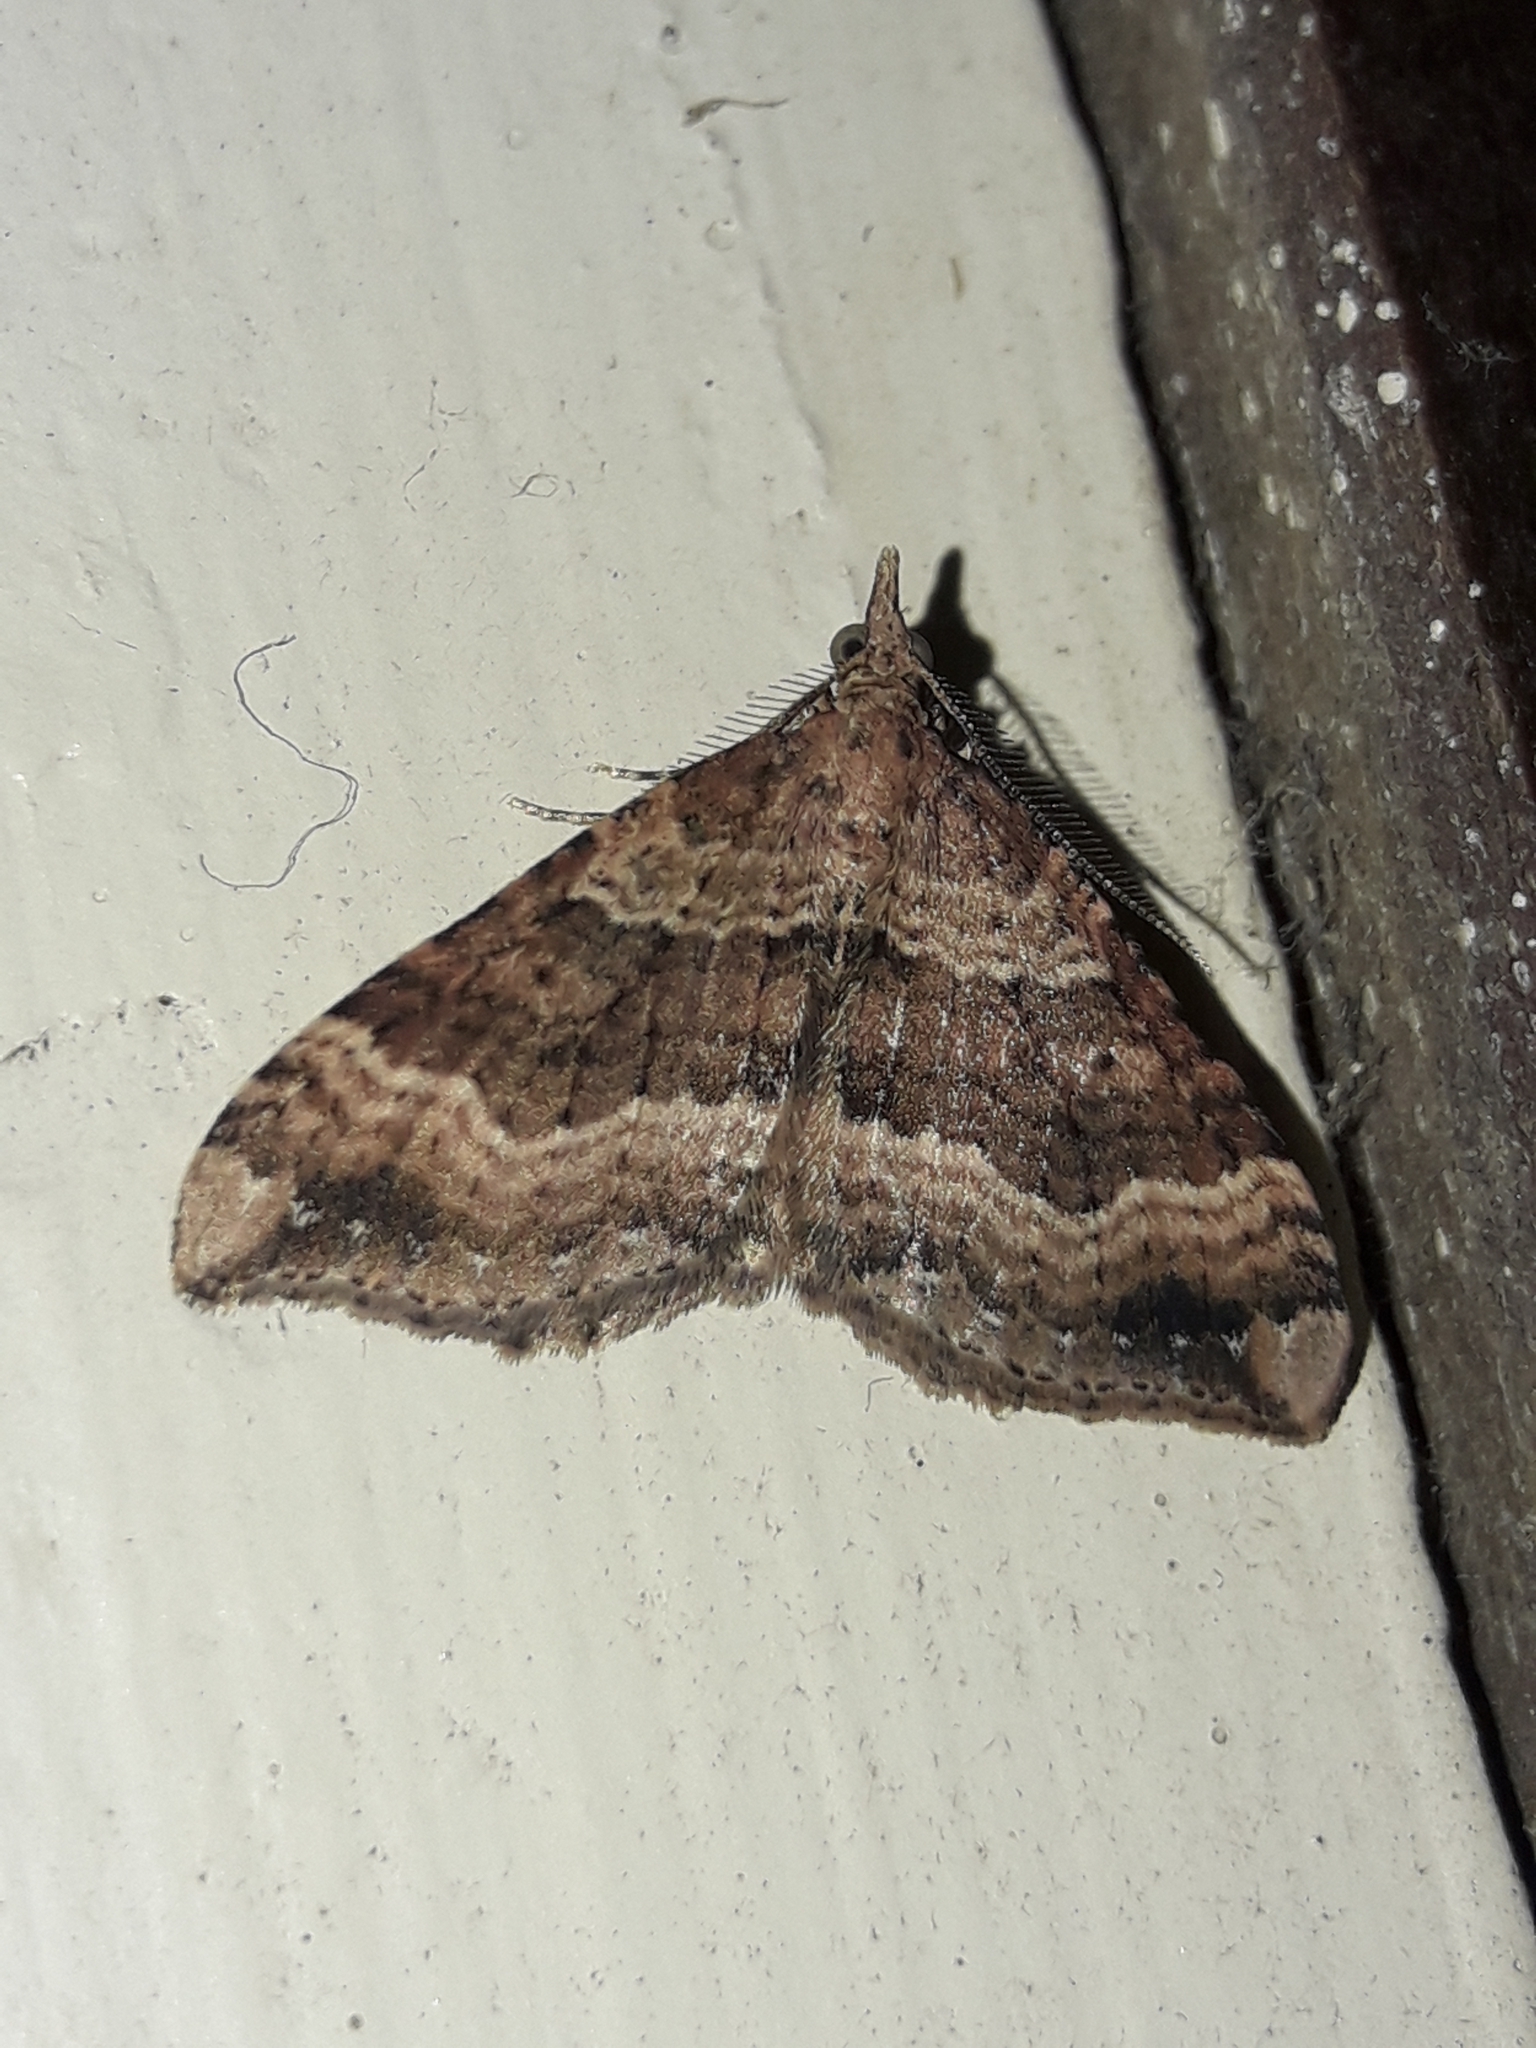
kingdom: Animalia
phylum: Arthropoda
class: Insecta
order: Lepidoptera
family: Geometridae
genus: Homodotis
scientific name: Homodotis falcata
